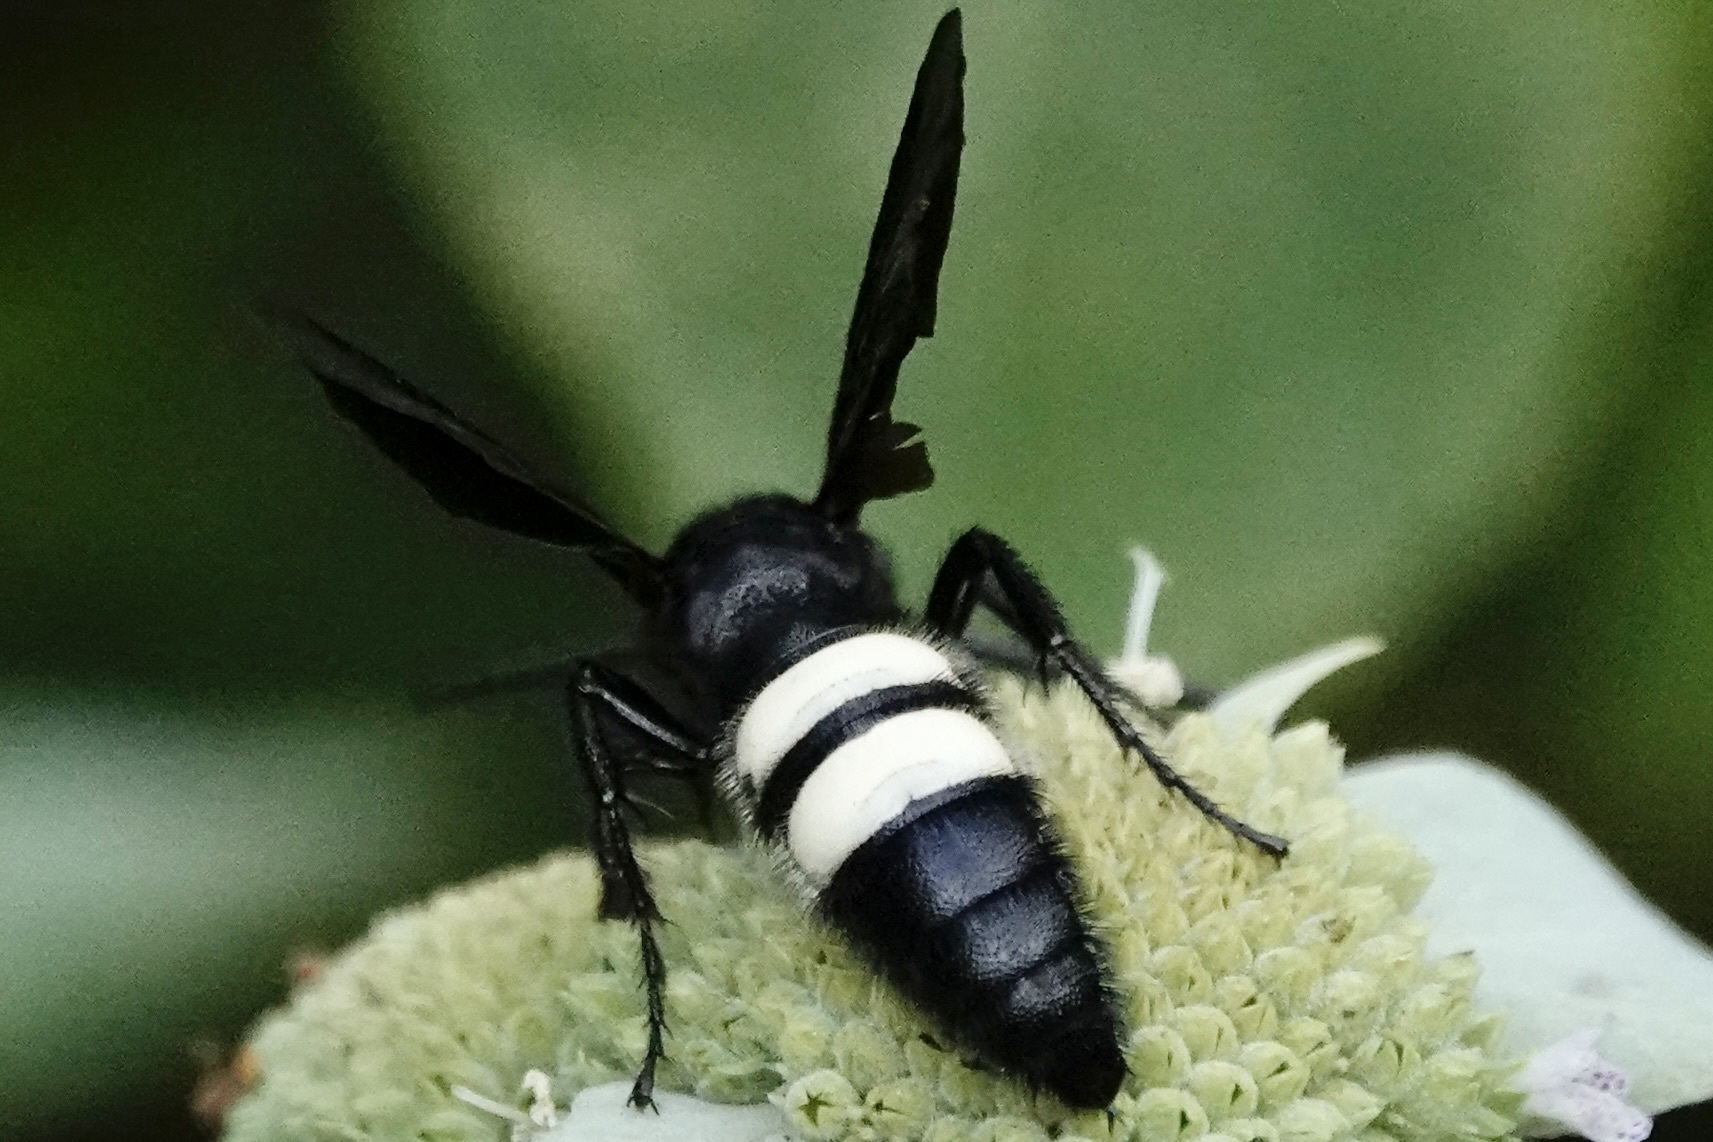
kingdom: Animalia
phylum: Arthropoda
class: Insecta
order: Hymenoptera
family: Scoliidae
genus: Scolia
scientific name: Scolia bicincta
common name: Double-banded scoliid wasp
